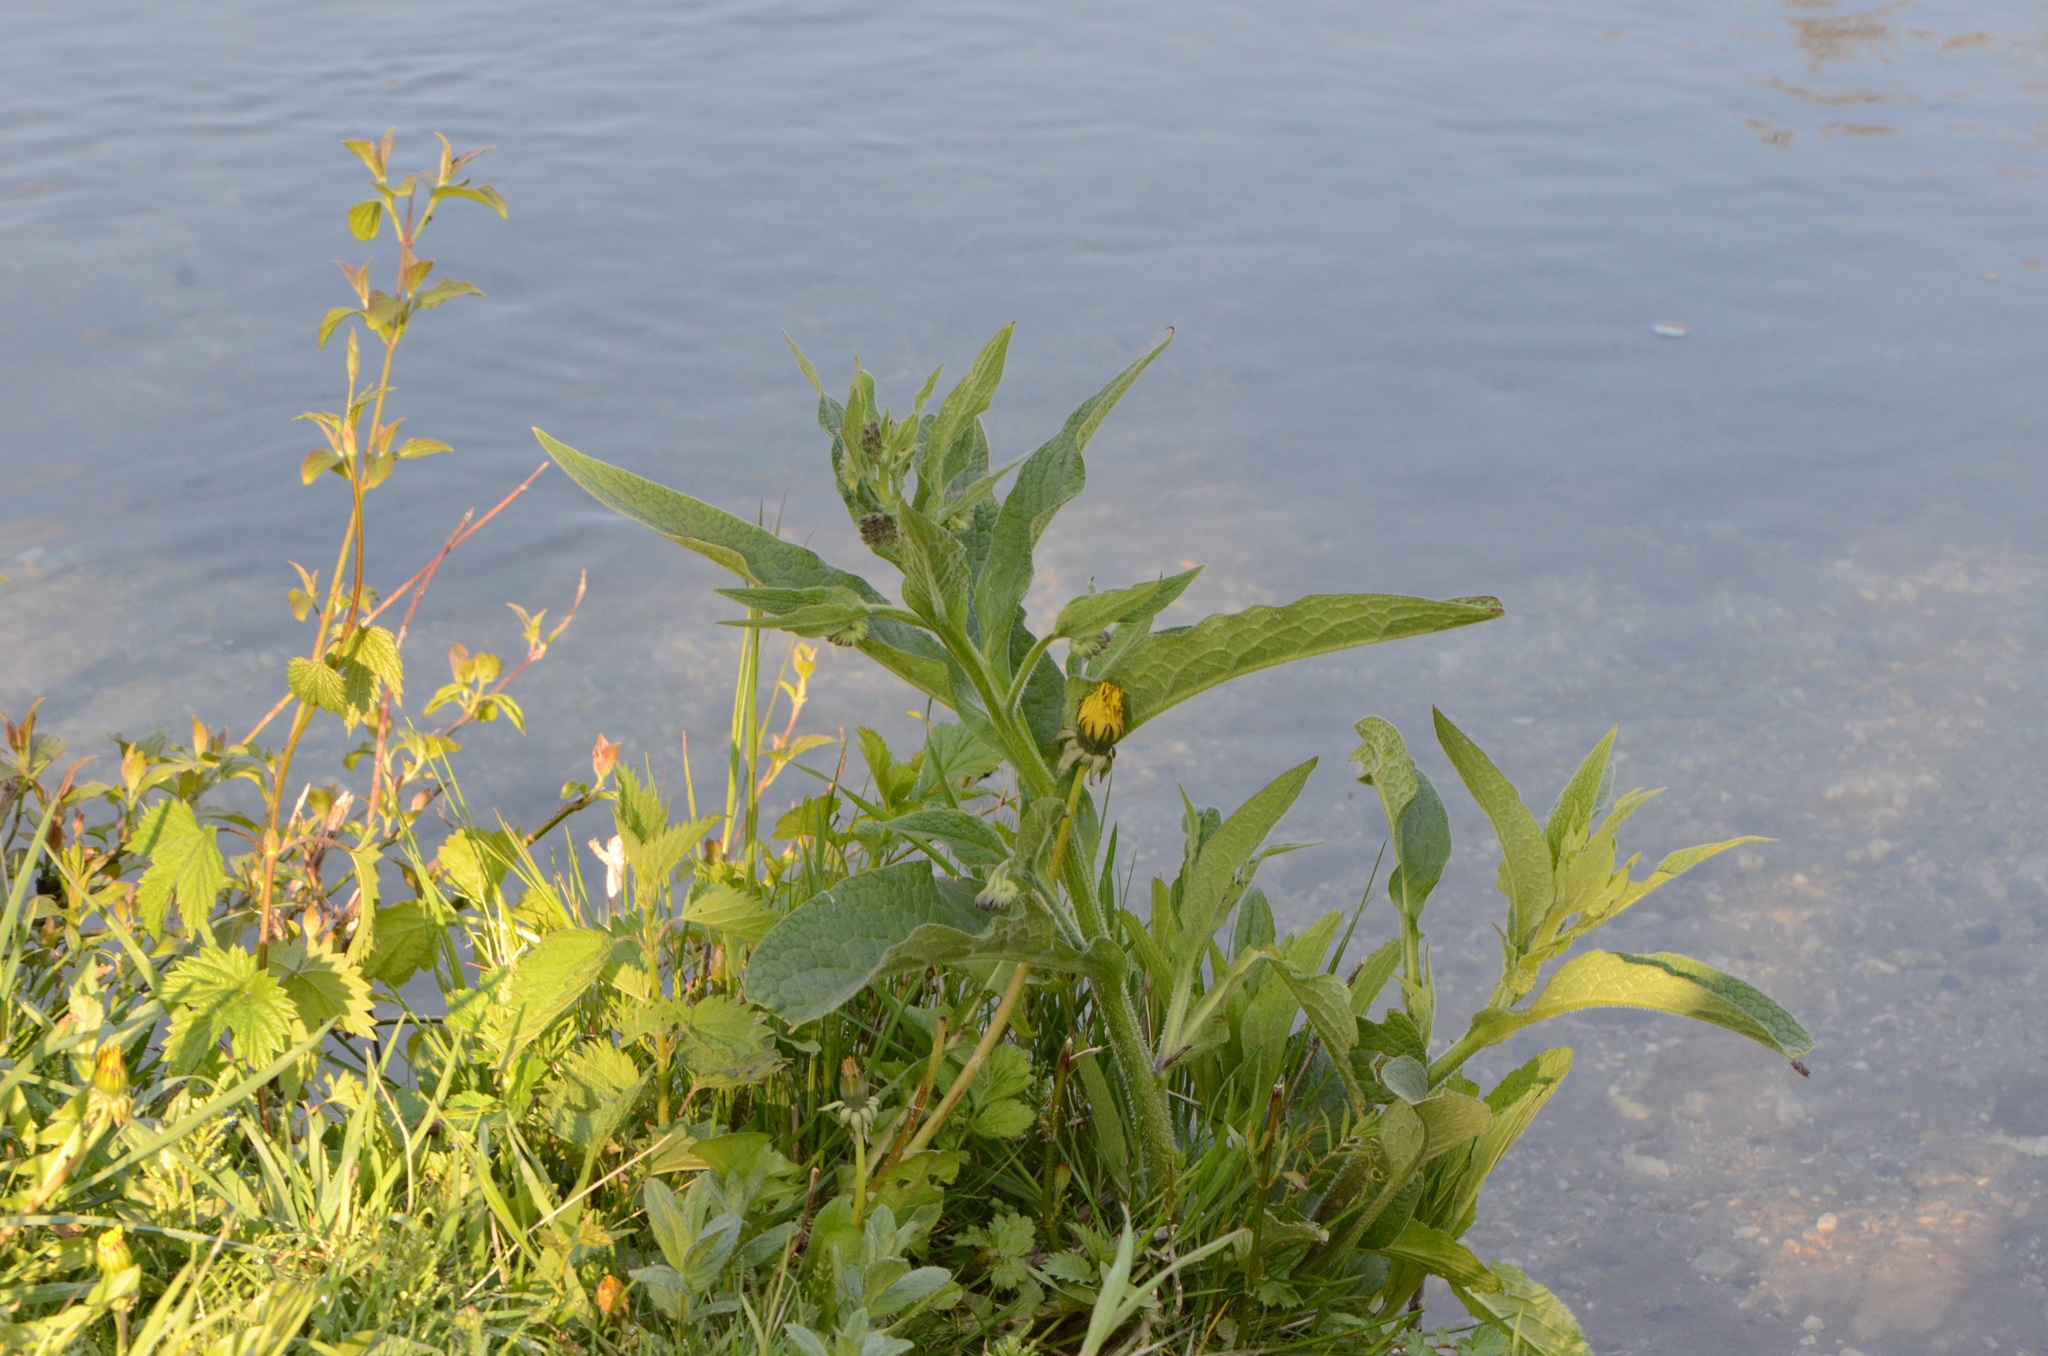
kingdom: Plantae
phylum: Tracheophyta
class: Magnoliopsida
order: Boraginales
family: Boraginaceae
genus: Symphytum
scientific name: Symphytum officinale
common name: Common comfrey
